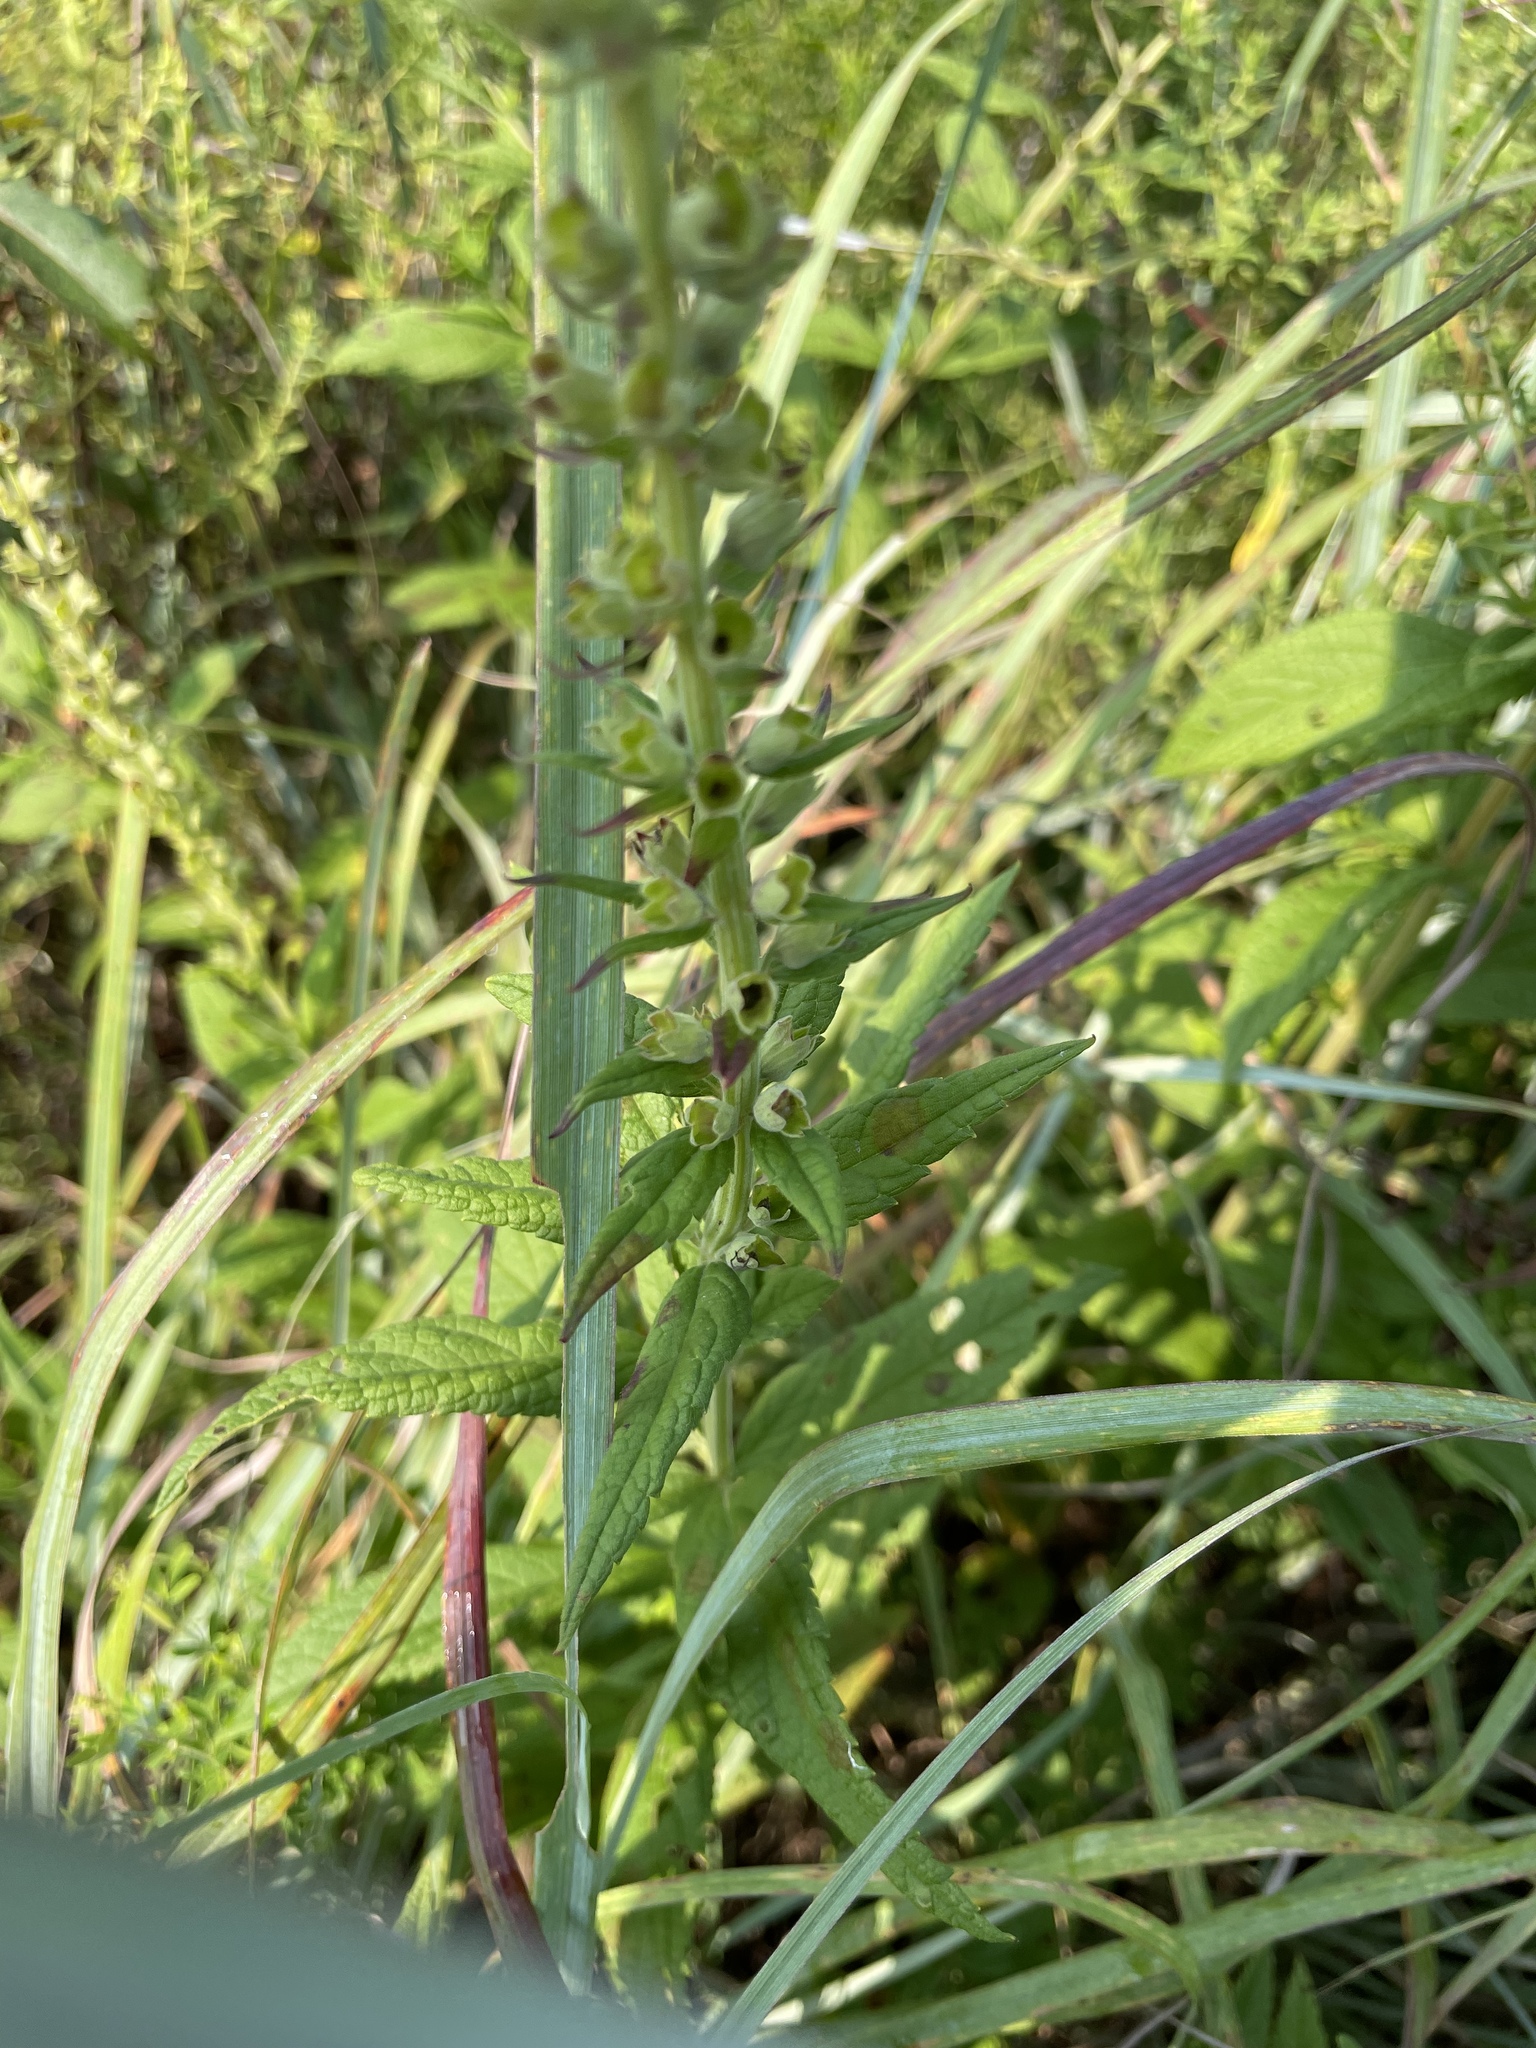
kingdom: Plantae
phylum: Tracheophyta
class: Magnoliopsida
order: Lamiales
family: Lamiaceae
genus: Teucrium
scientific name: Teucrium canadense
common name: American germander
